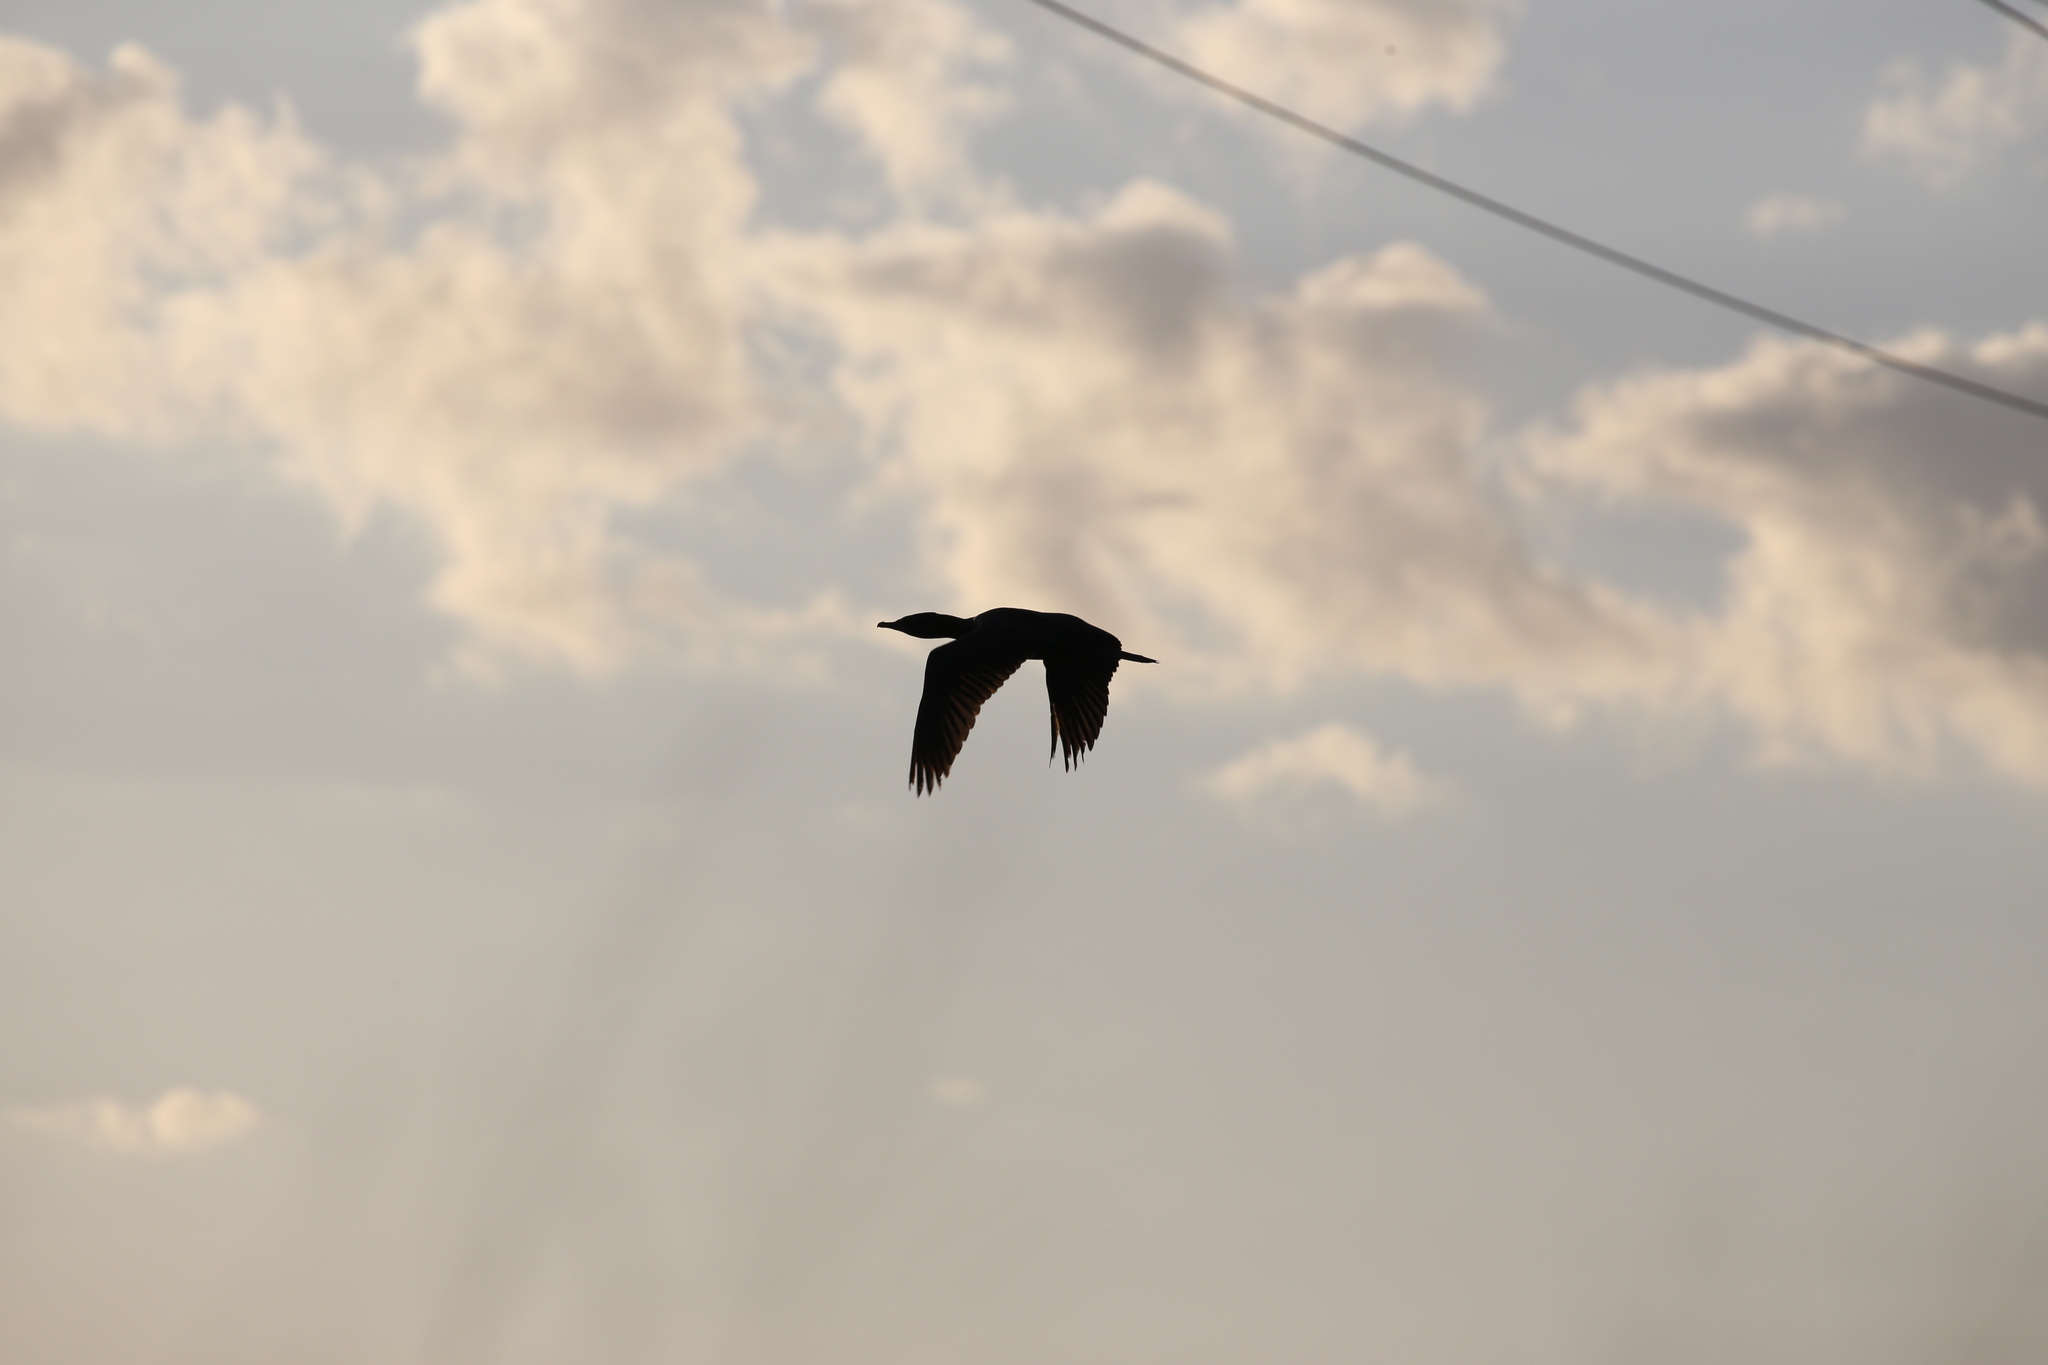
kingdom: Animalia
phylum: Chordata
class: Aves
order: Suliformes
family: Phalacrocoracidae
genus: Phalacrocorax
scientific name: Phalacrocorax sulcirostris
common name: Little black cormorant
